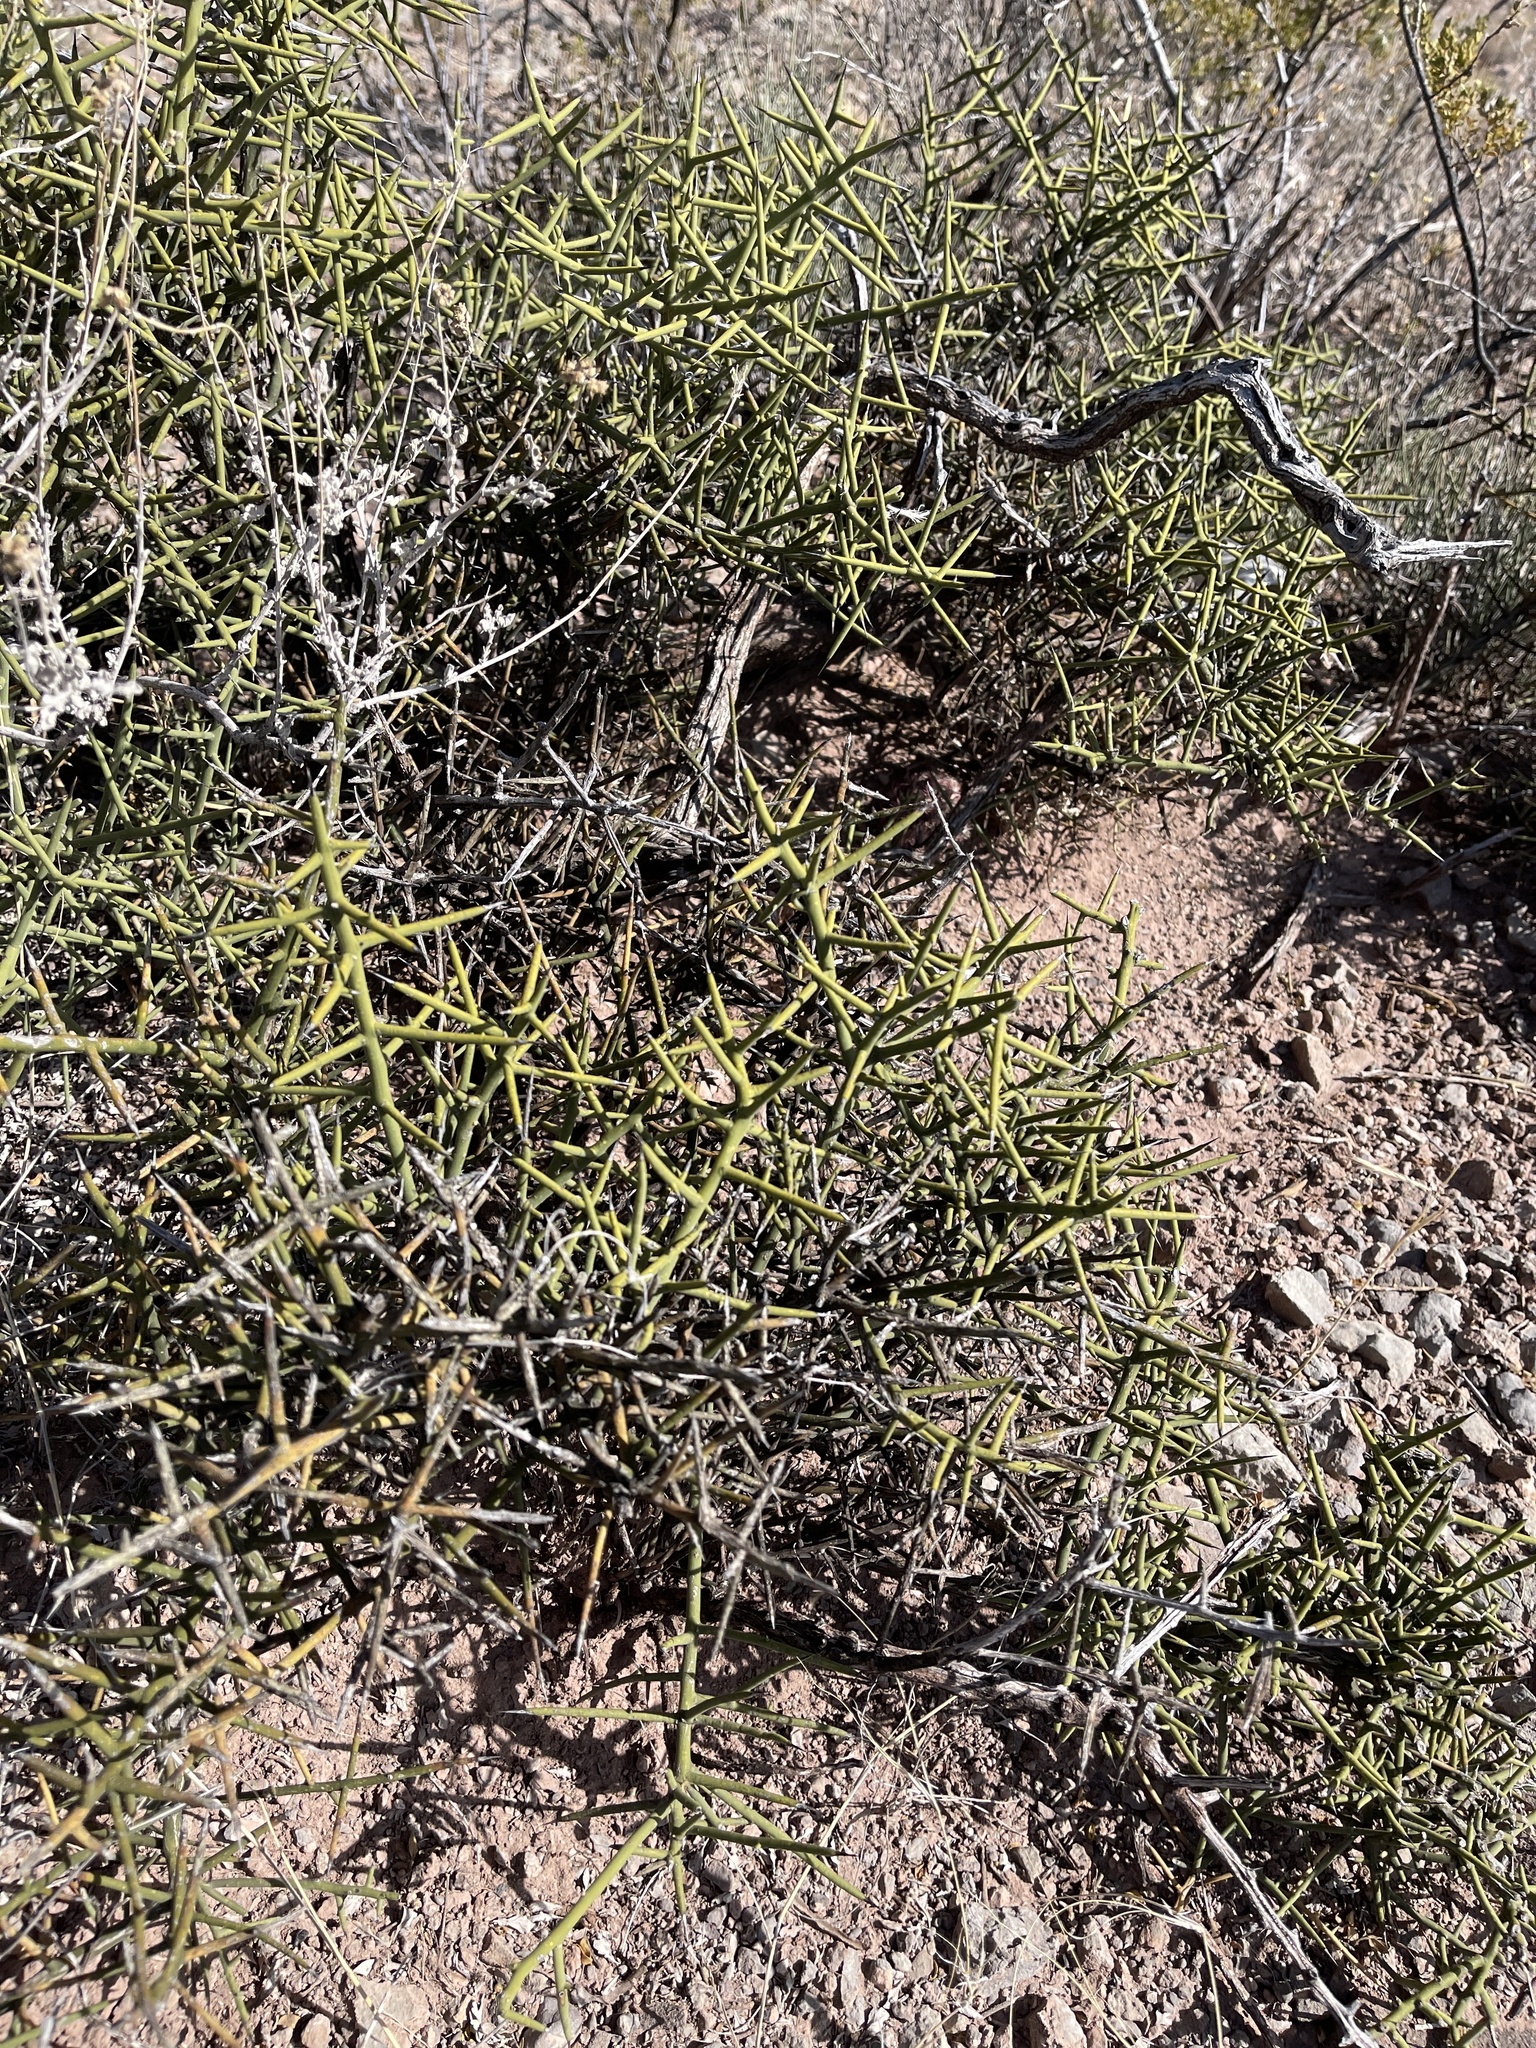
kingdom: Plantae
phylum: Tracheophyta
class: Magnoliopsida
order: Brassicales
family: Koeberliniaceae
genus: Koeberlinia
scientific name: Koeberlinia spinosa
